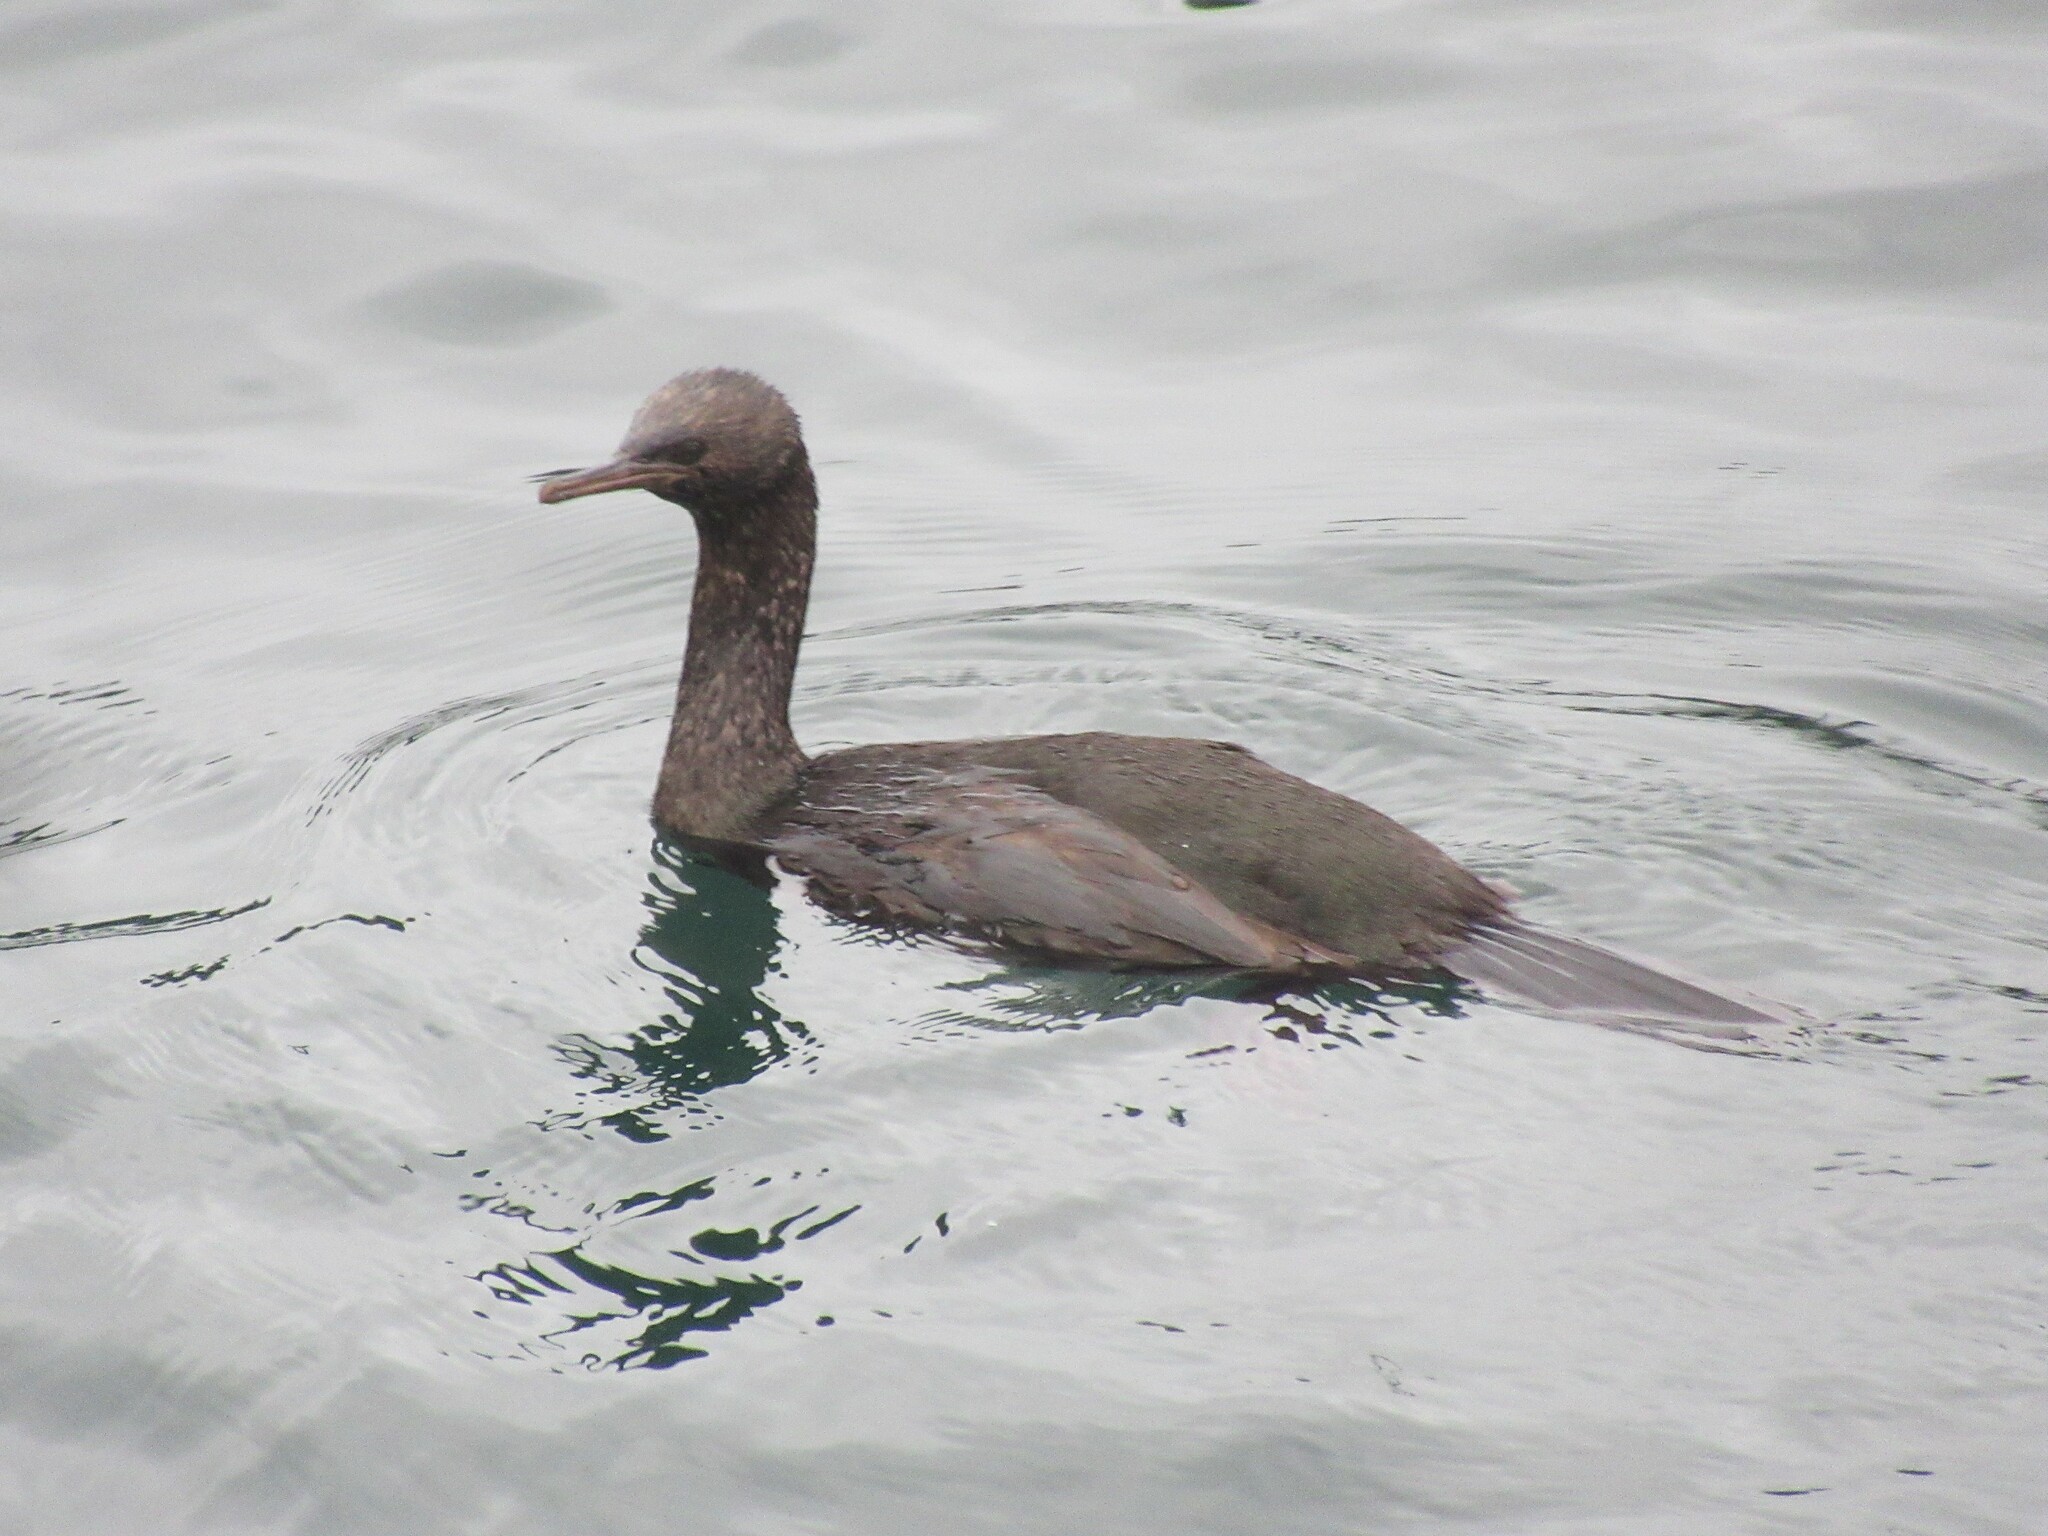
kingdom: Animalia
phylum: Chordata
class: Aves
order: Suliformes
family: Phalacrocoracidae
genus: Phalacrocorax
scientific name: Phalacrocorax pelagicus
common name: Pelagic cormorant
